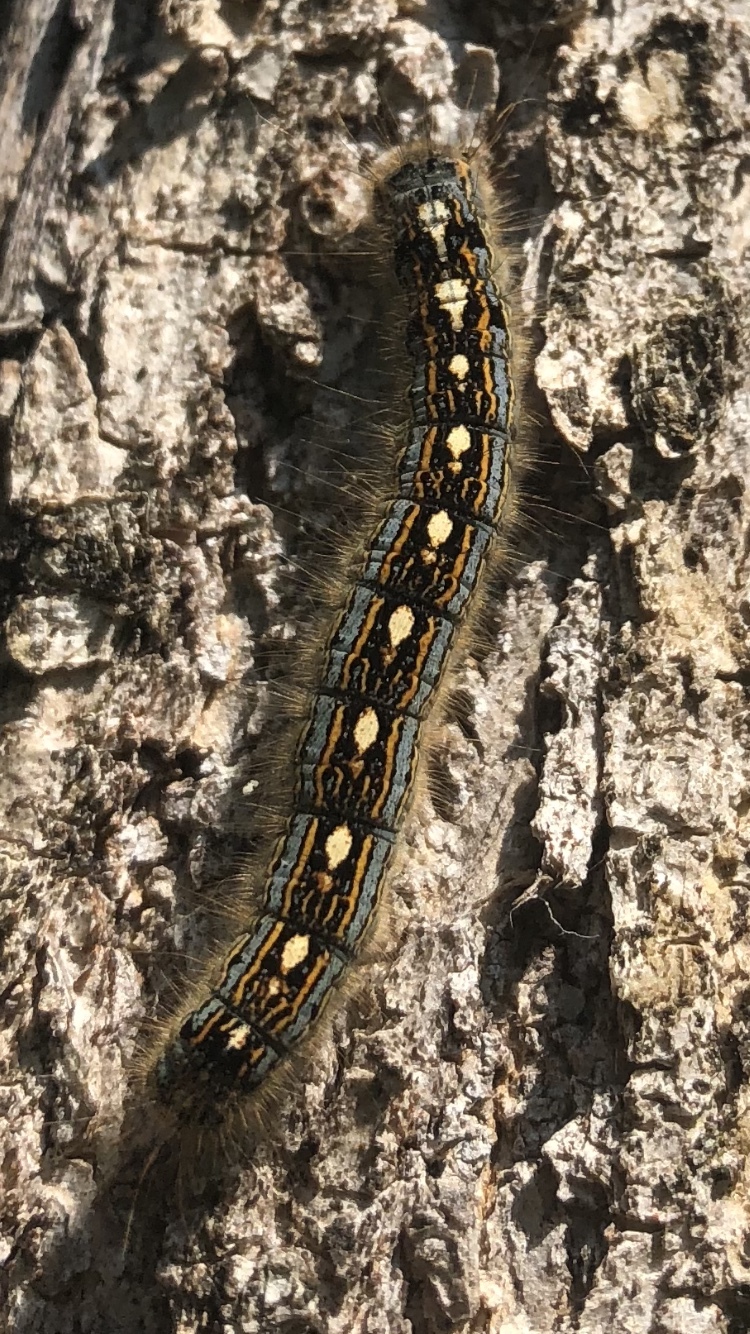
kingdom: Animalia
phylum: Arthropoda
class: Insecta
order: Lepidoptera
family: Lasiocampidae
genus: Malacosoma
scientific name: Malacosoma disstria
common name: Forest tent caterpillar
